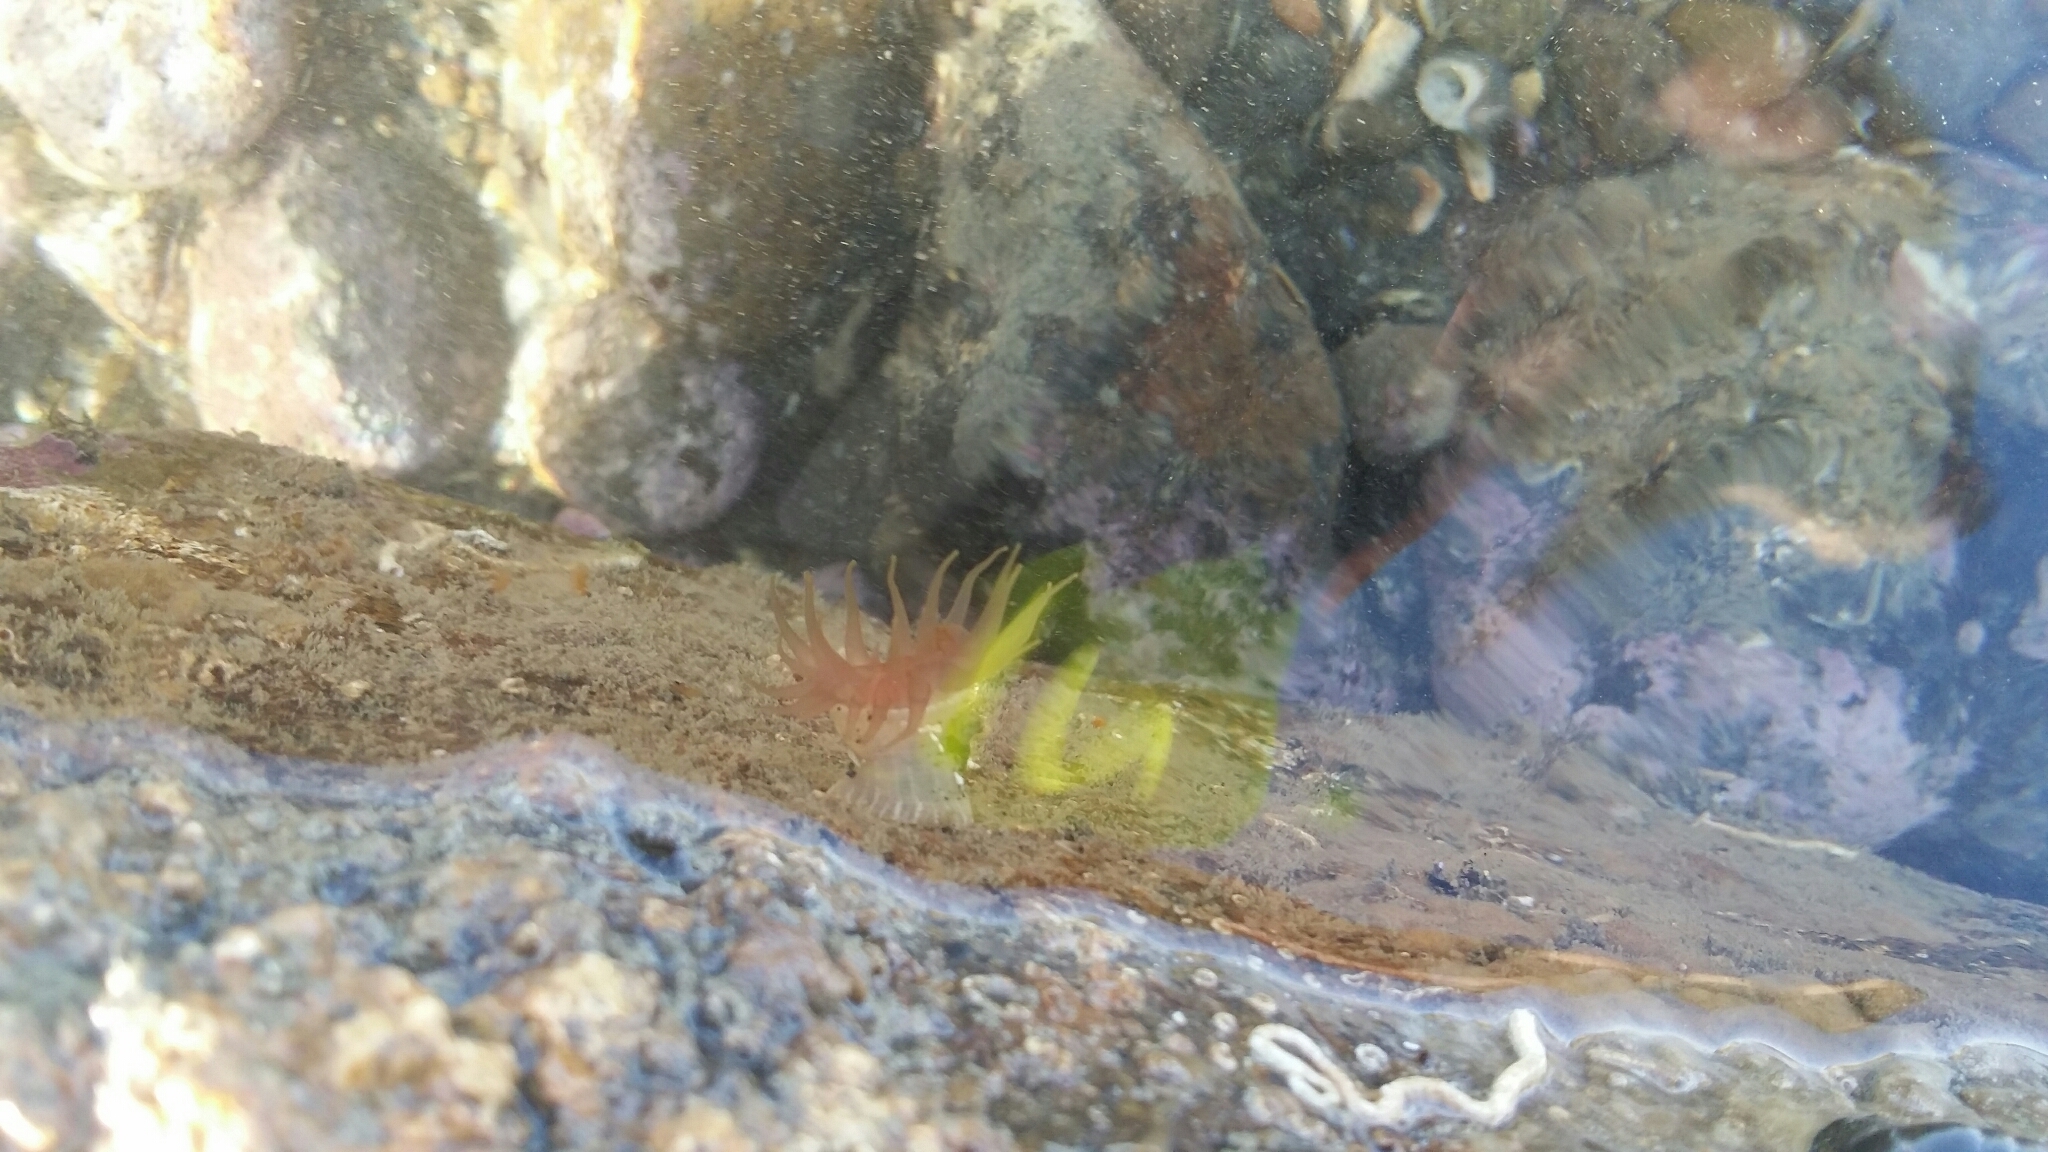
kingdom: Animalia
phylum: Cnidaria
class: Anthozoa
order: Actiniaria
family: Actiniidae
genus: Isactinia
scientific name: Isactinia olivacea
